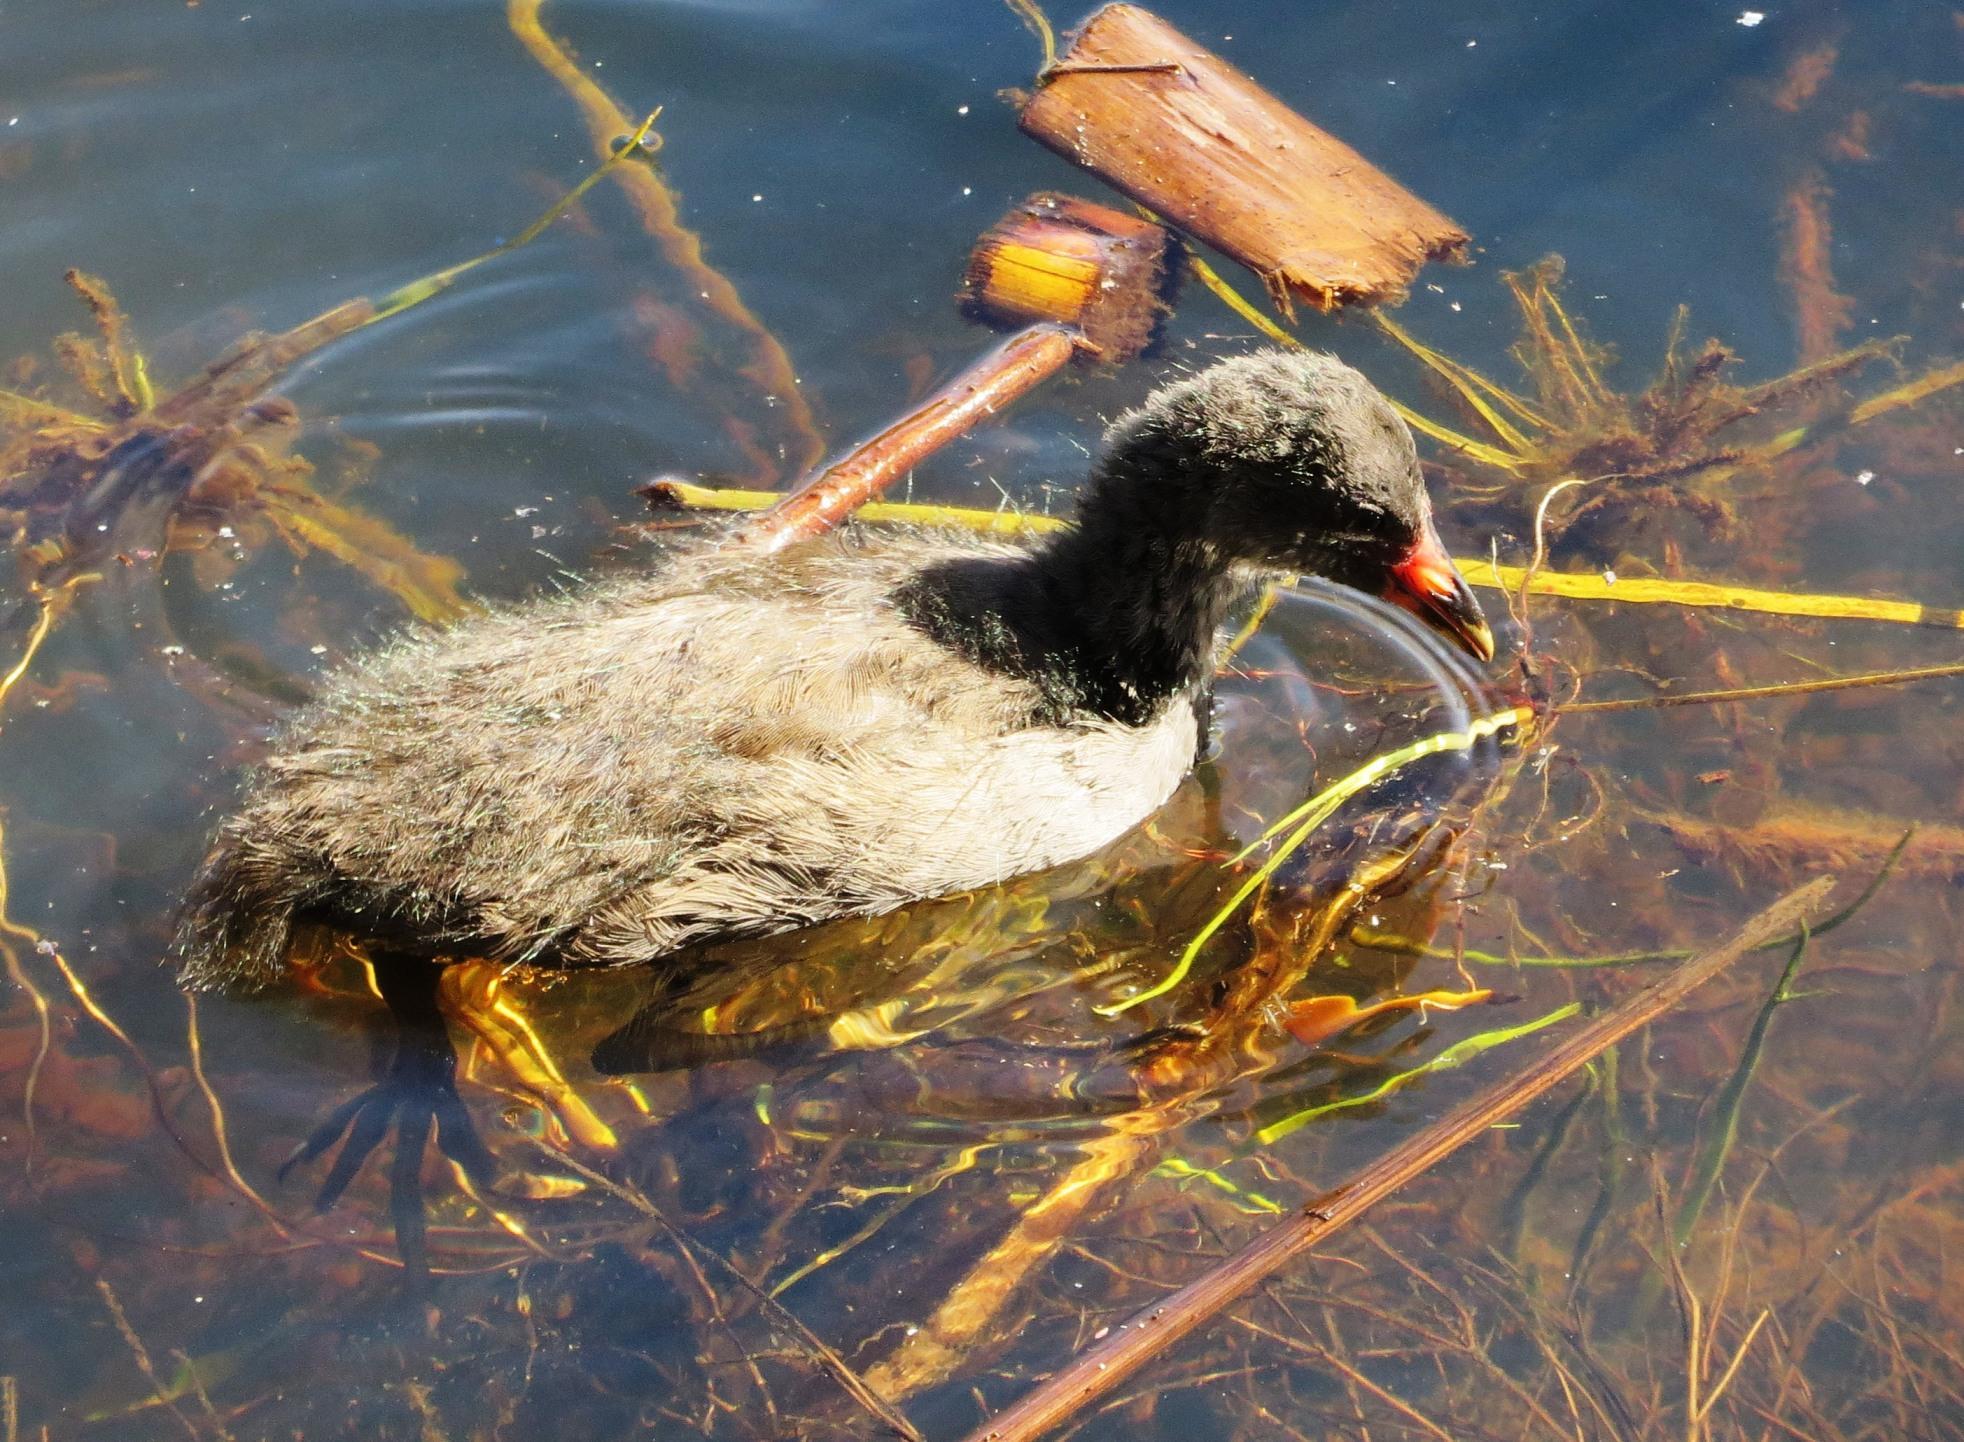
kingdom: Animalia
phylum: Chordata
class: Aves
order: Gruiformes
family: Rallidae
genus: Gallinula
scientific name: Gallinula chloropus
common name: Common moorhen
